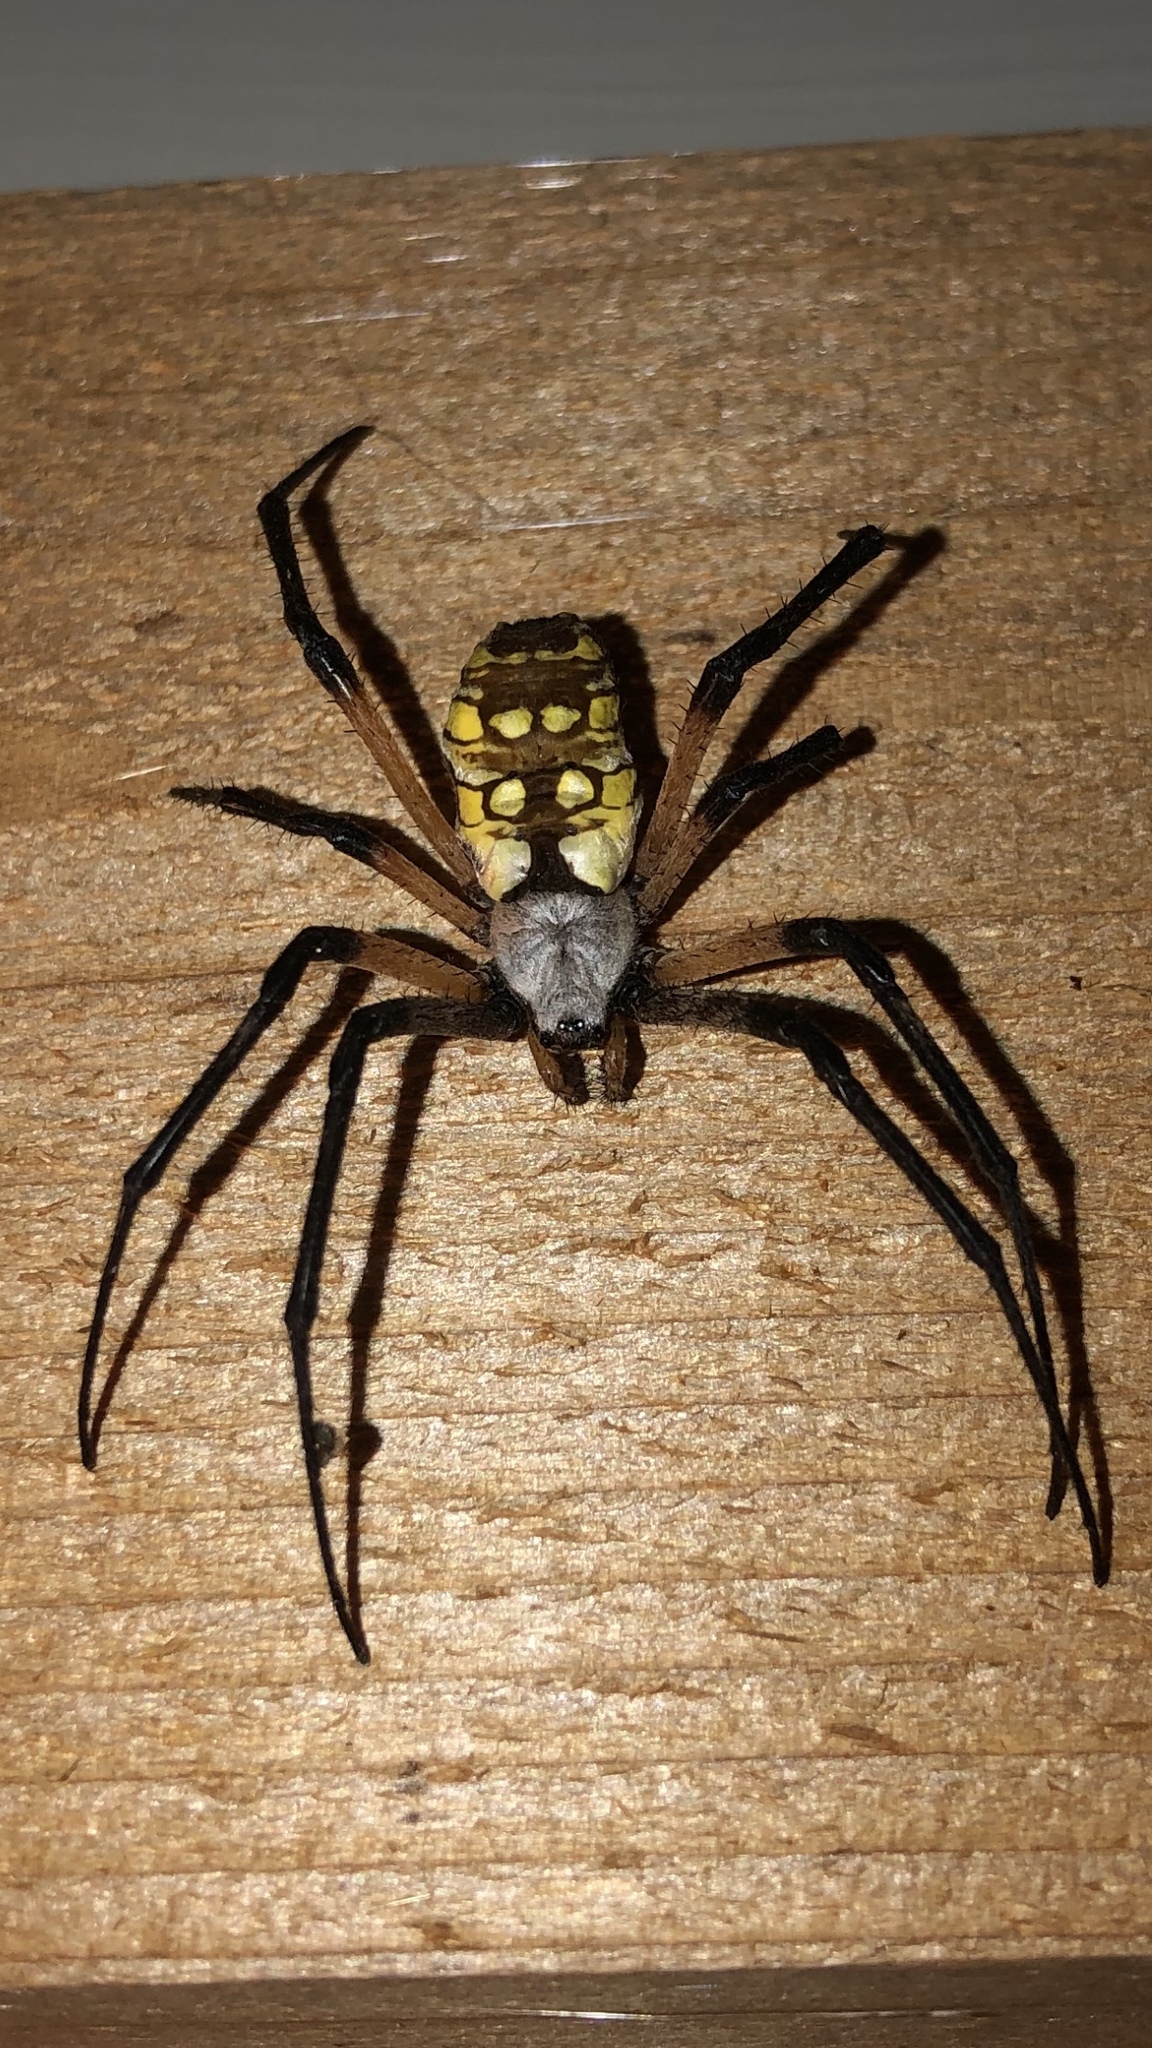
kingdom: Animalia
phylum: Arthropoda
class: Arachnida
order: Araneae
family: Araneidae
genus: Argiope
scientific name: Argiope aurantia
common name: Orb weavers
